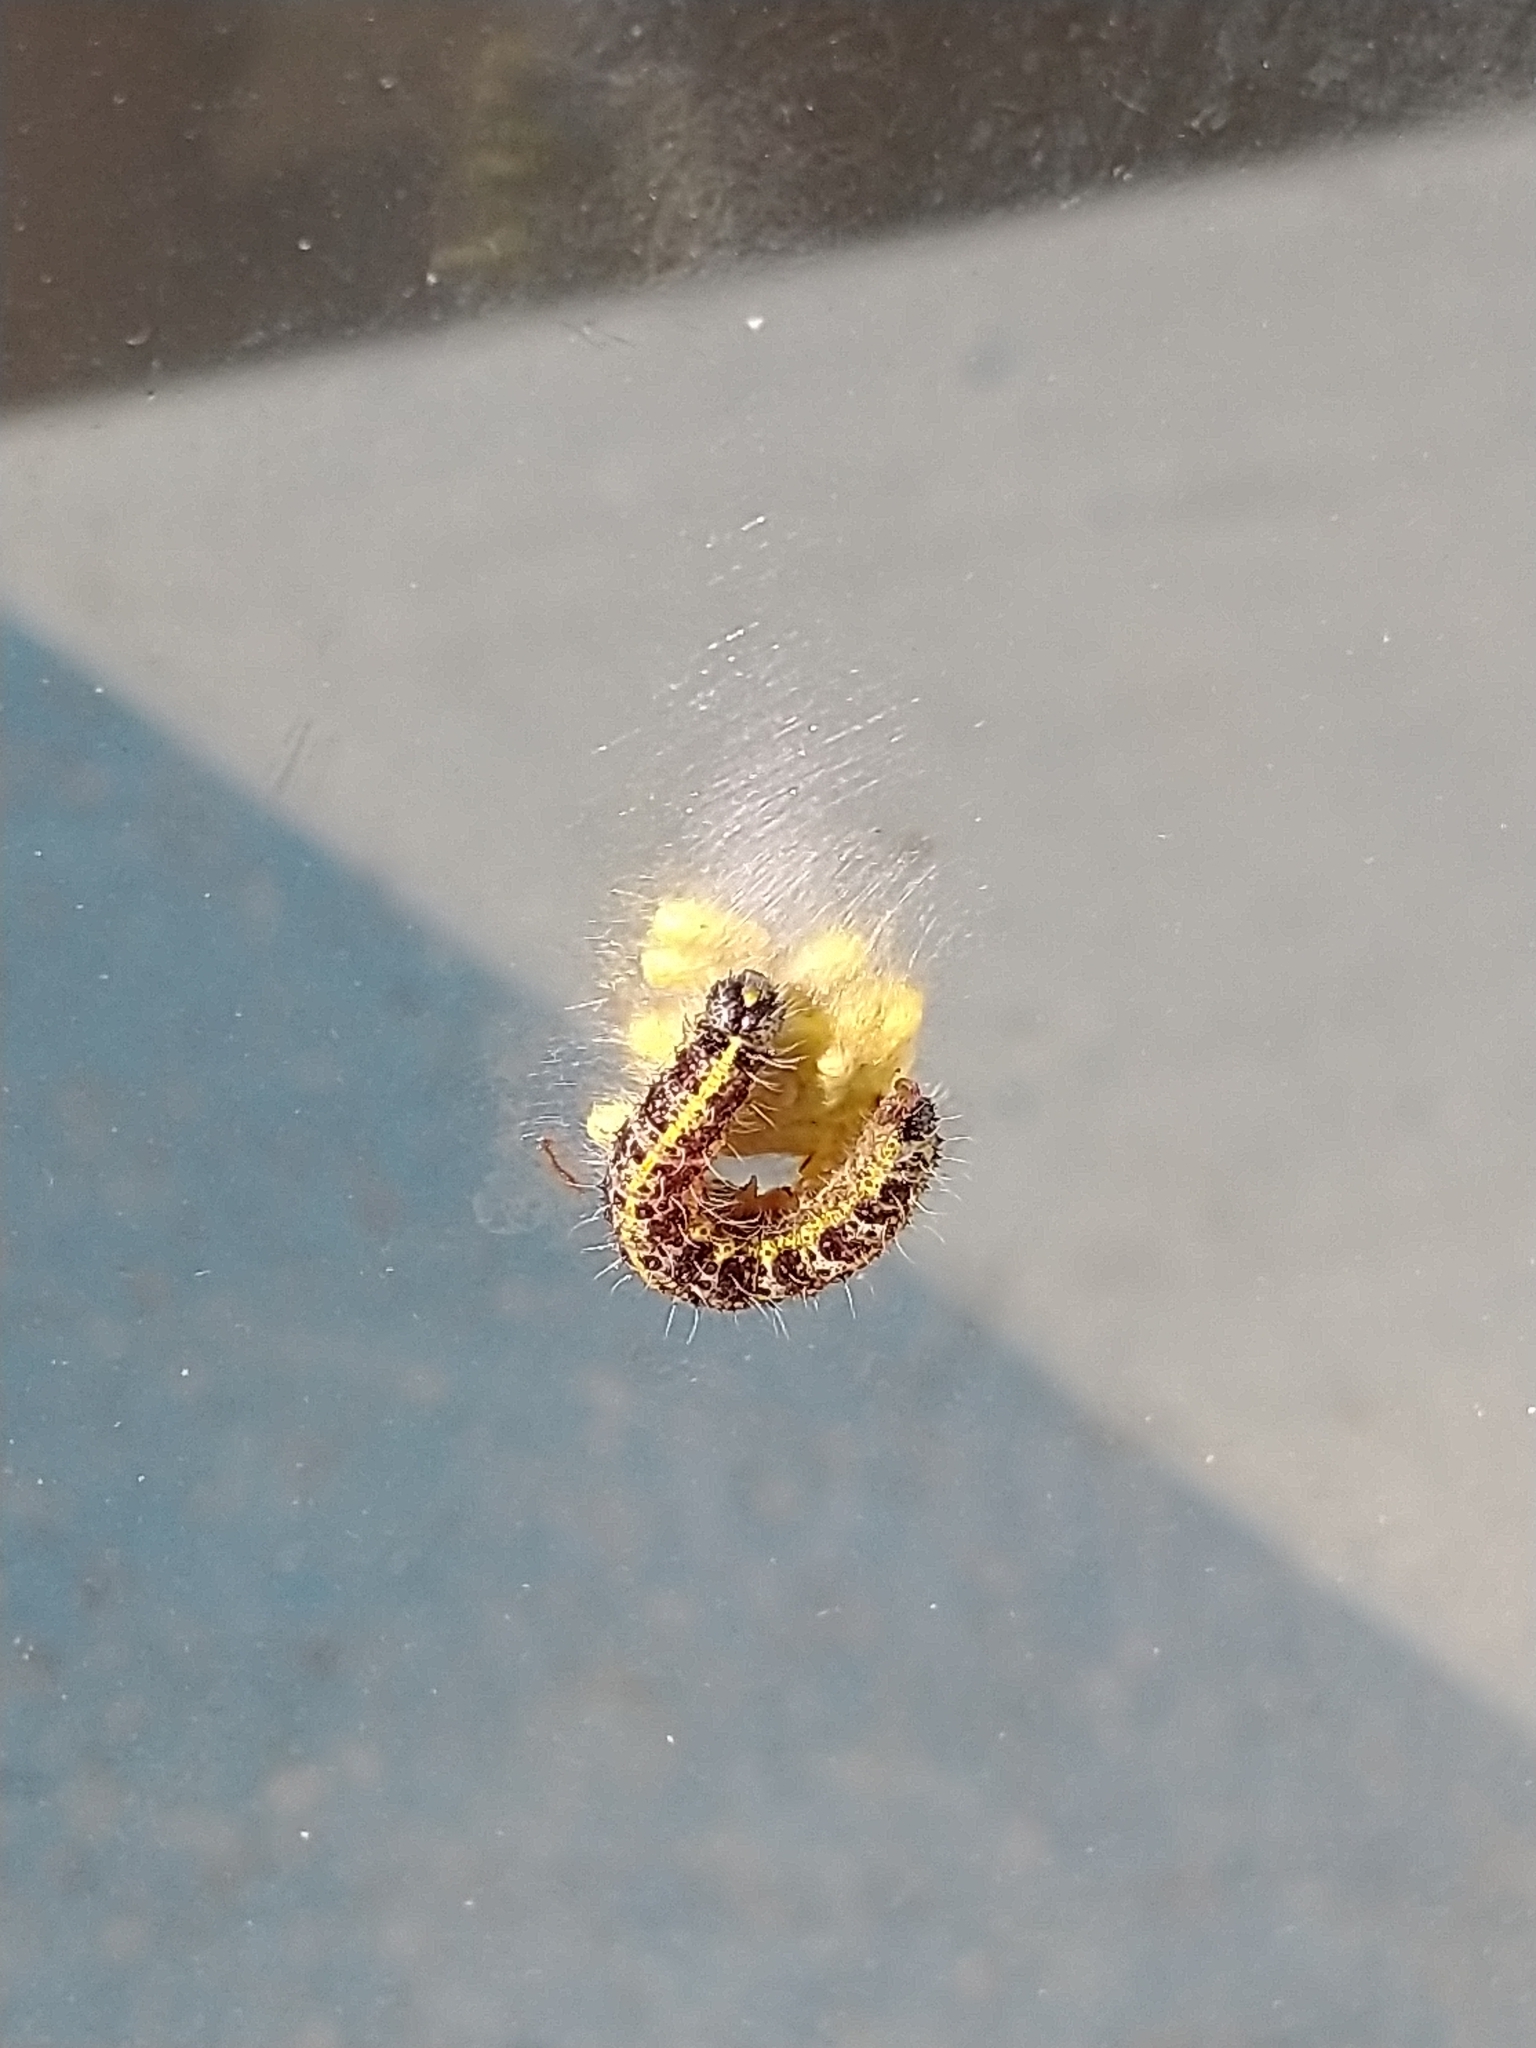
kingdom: Animalia
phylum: Arthropoda
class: Insecta
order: Hymenoptera
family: Braconidae
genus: Cotesia
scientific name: Cotesia glomerata
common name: Parasitoid wasp
